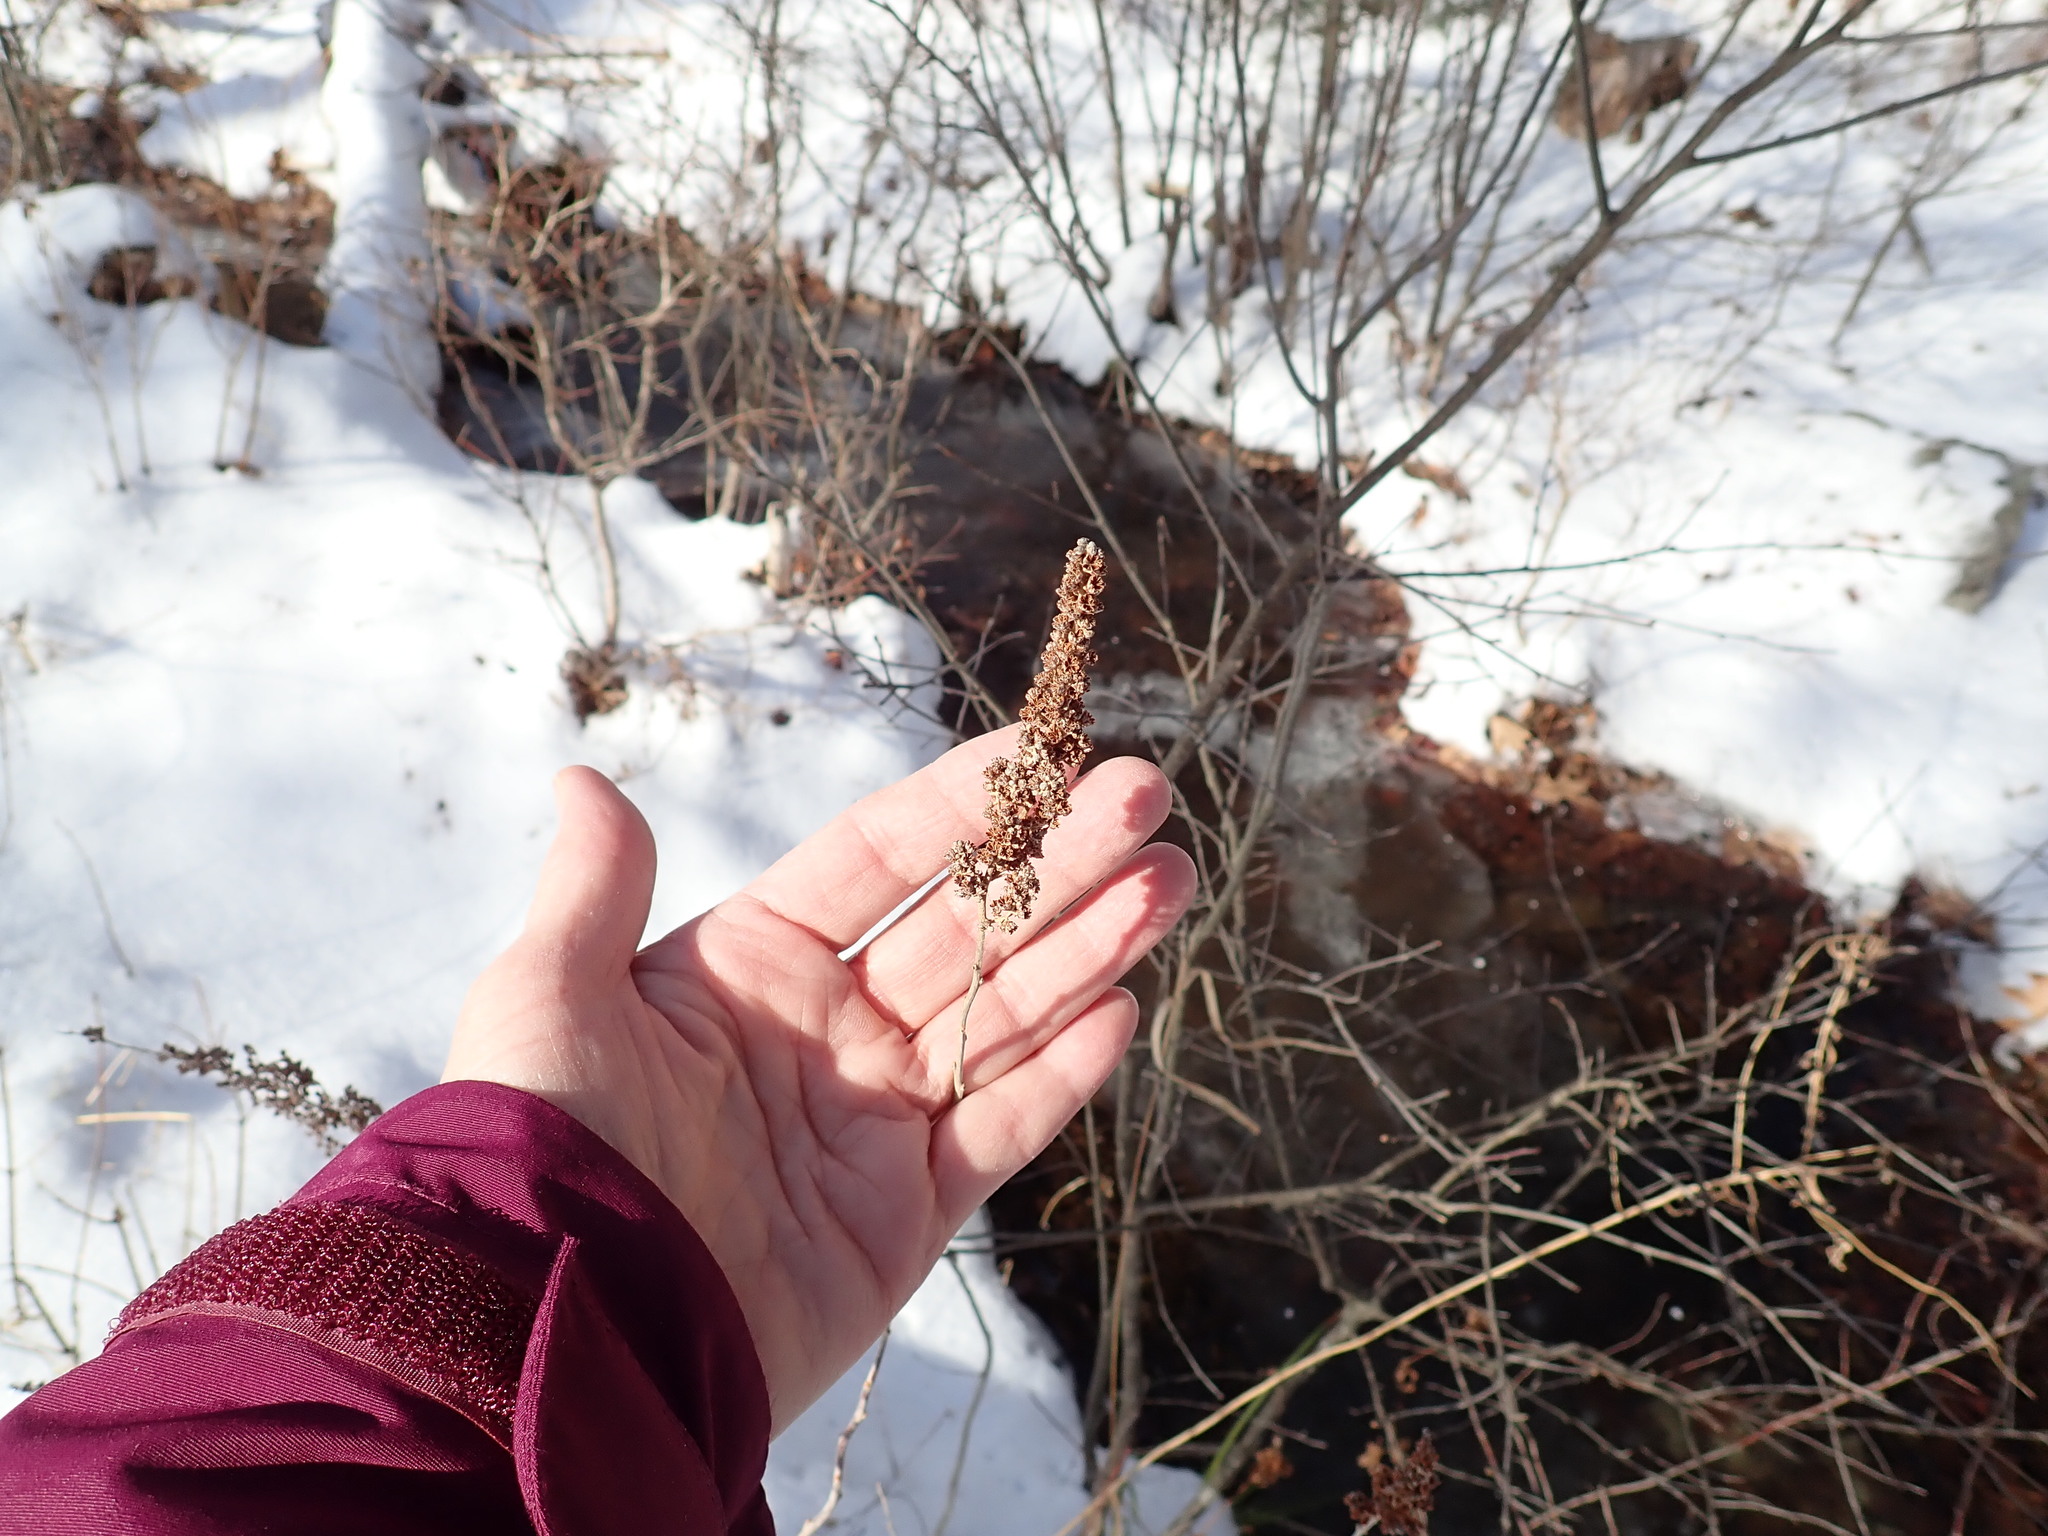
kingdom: Plantae
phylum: Tracheophyta
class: Magnoliopsida
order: Rosales
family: Rosaceae
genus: Spiraea
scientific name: Spiraea tomentosa
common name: Hardhack
